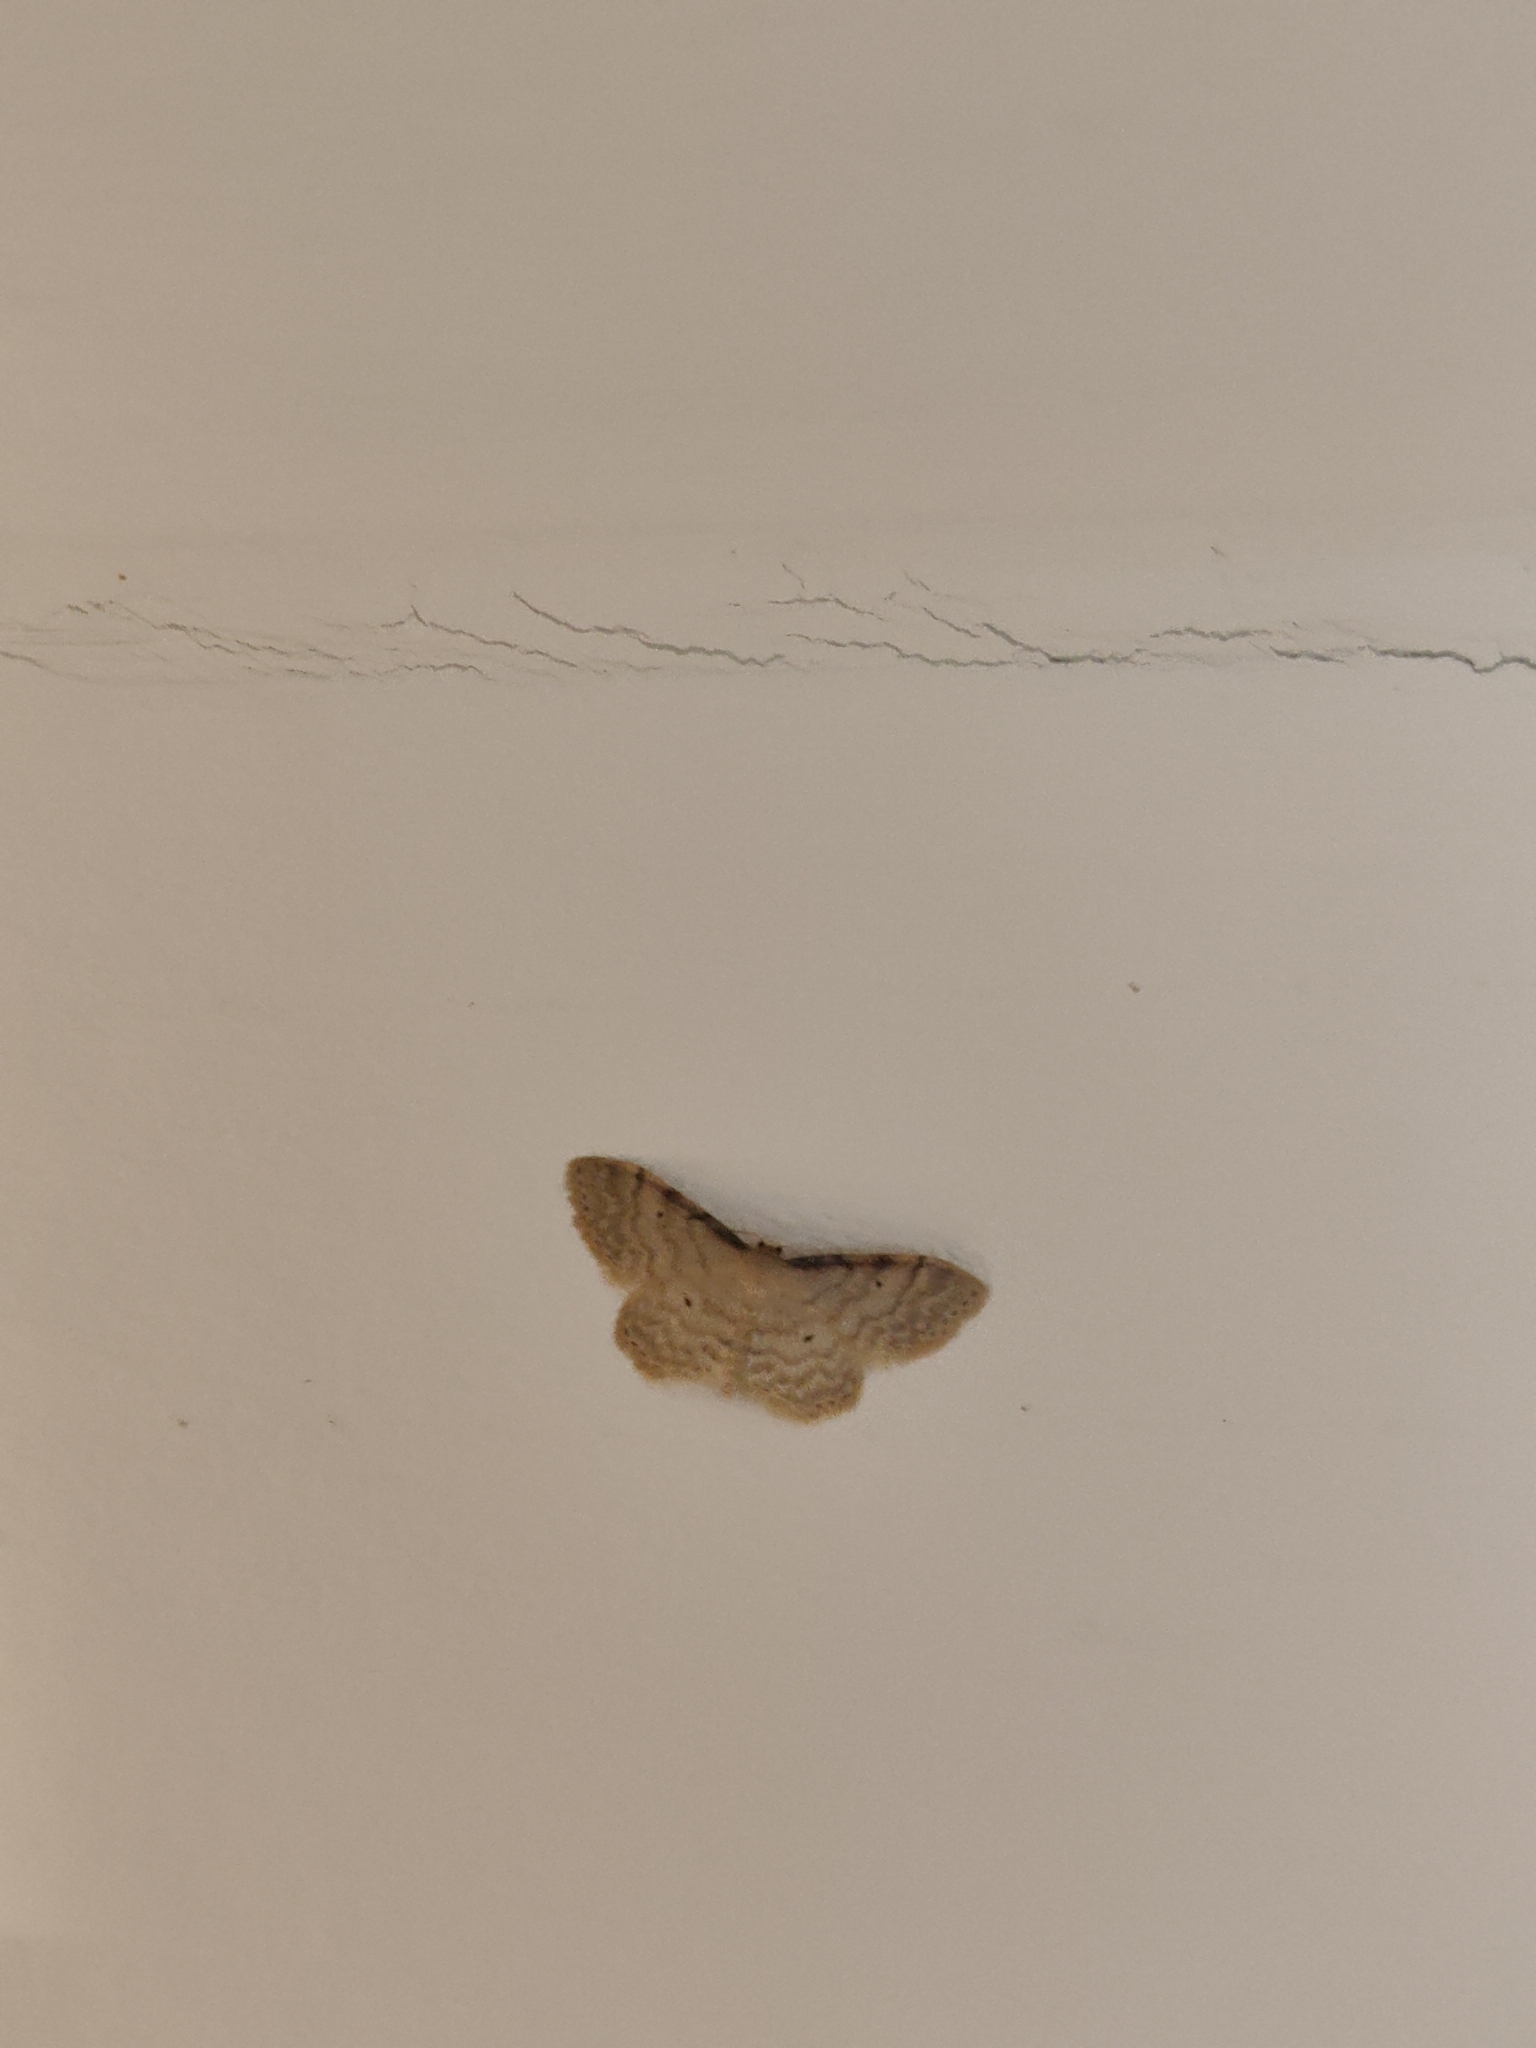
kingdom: Animalia
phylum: Arthropoda
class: Insecta
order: Lepidoptera
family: Geometridae
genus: Idaea
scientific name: Idaea fuscovenosa
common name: Dwarf cream wave
